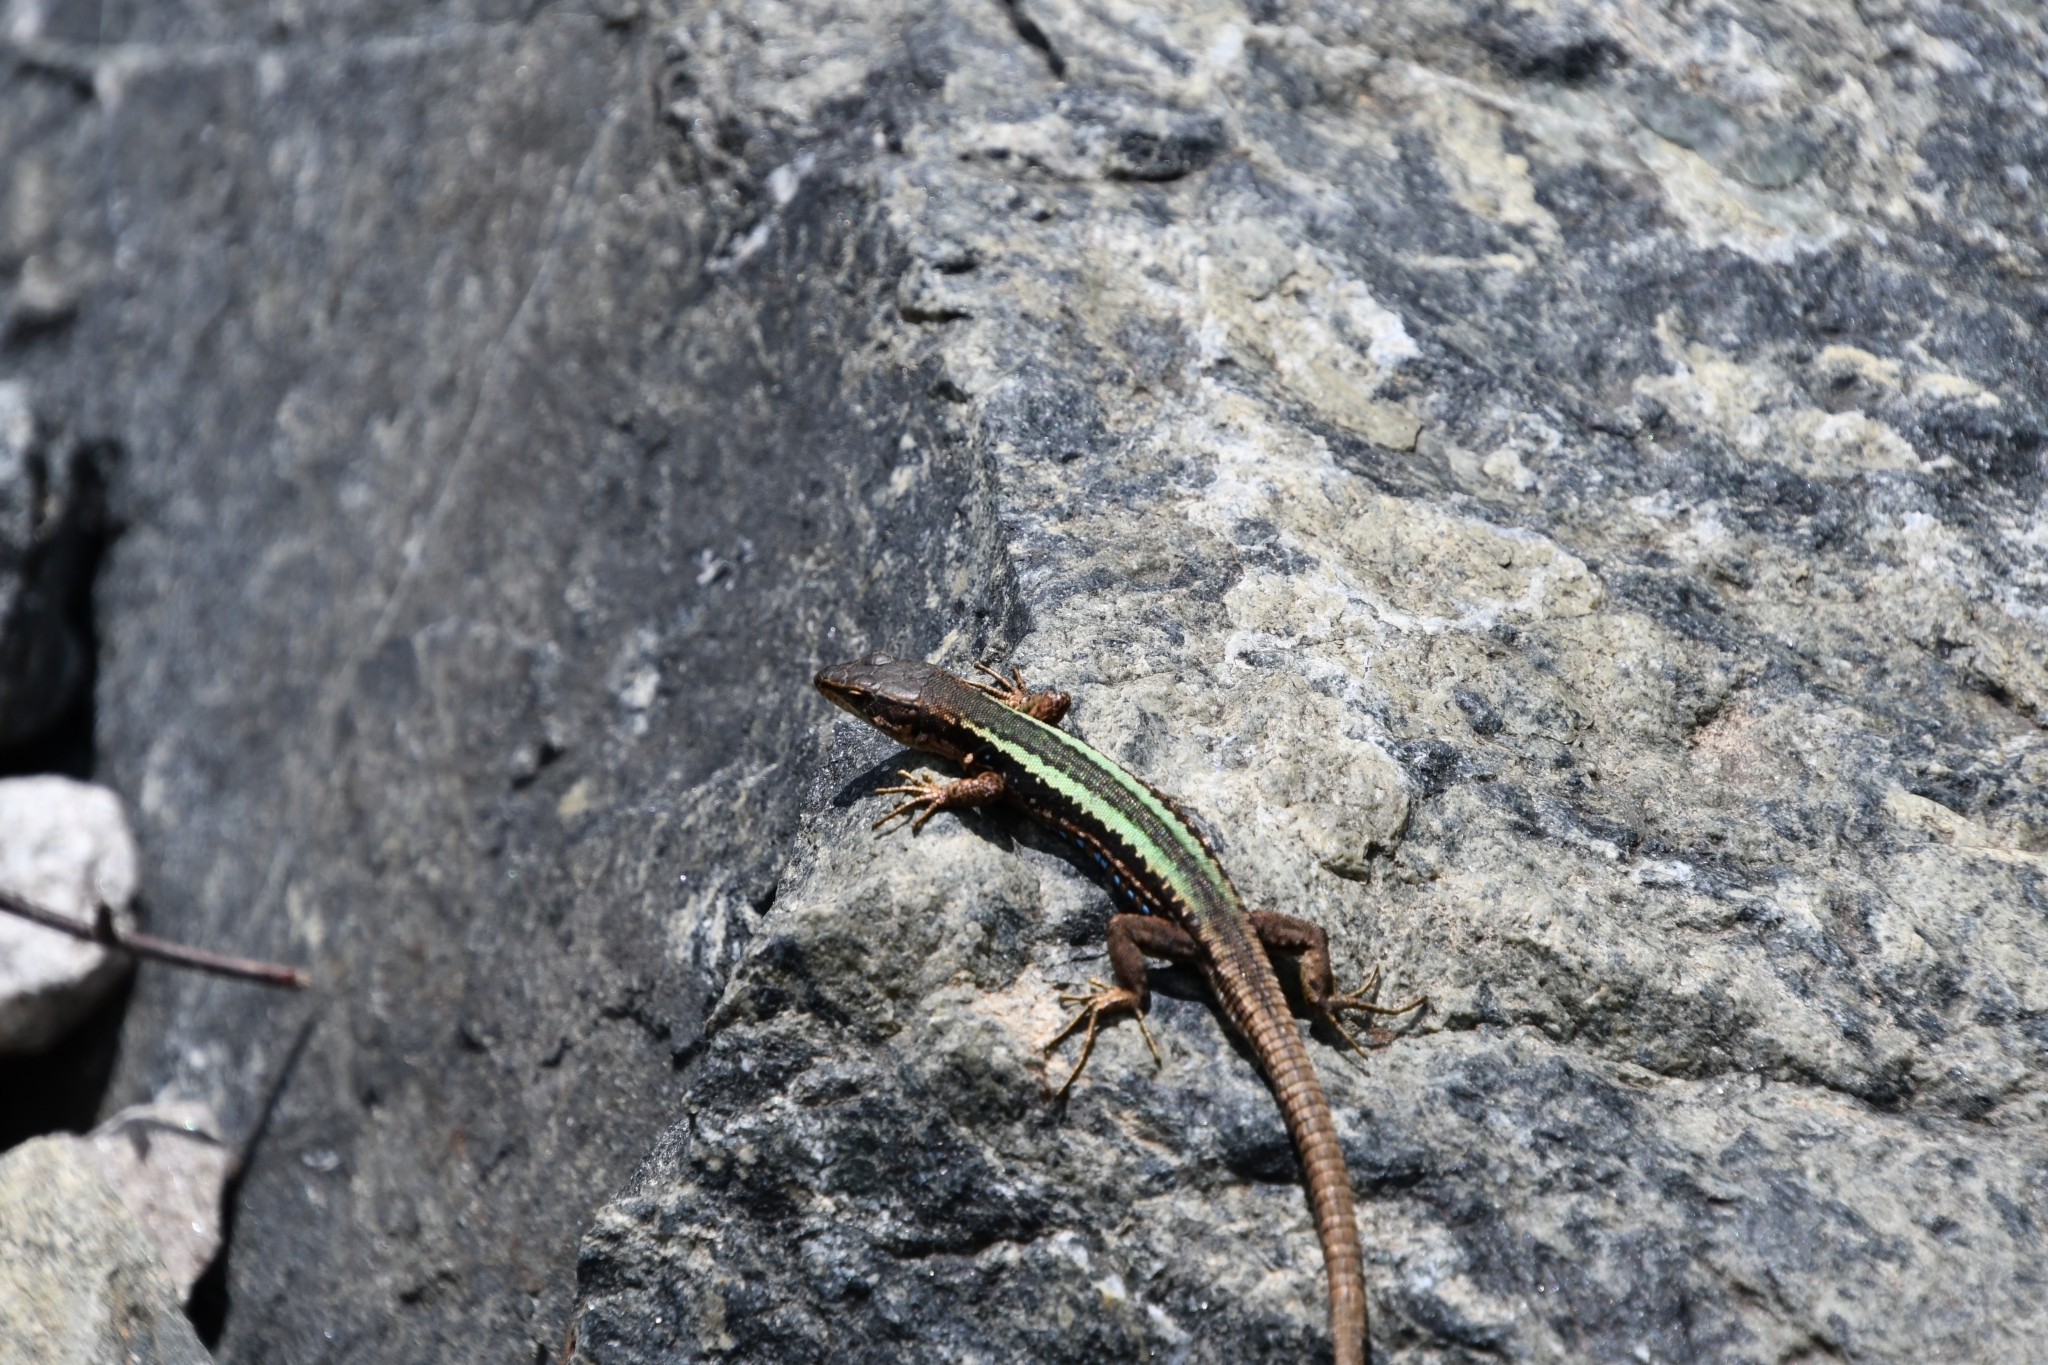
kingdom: Animalia
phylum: Chordata
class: Squamata
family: Lacertidae
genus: Darevskia
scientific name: Darevskia brauneri
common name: Brauner's rock lizard
